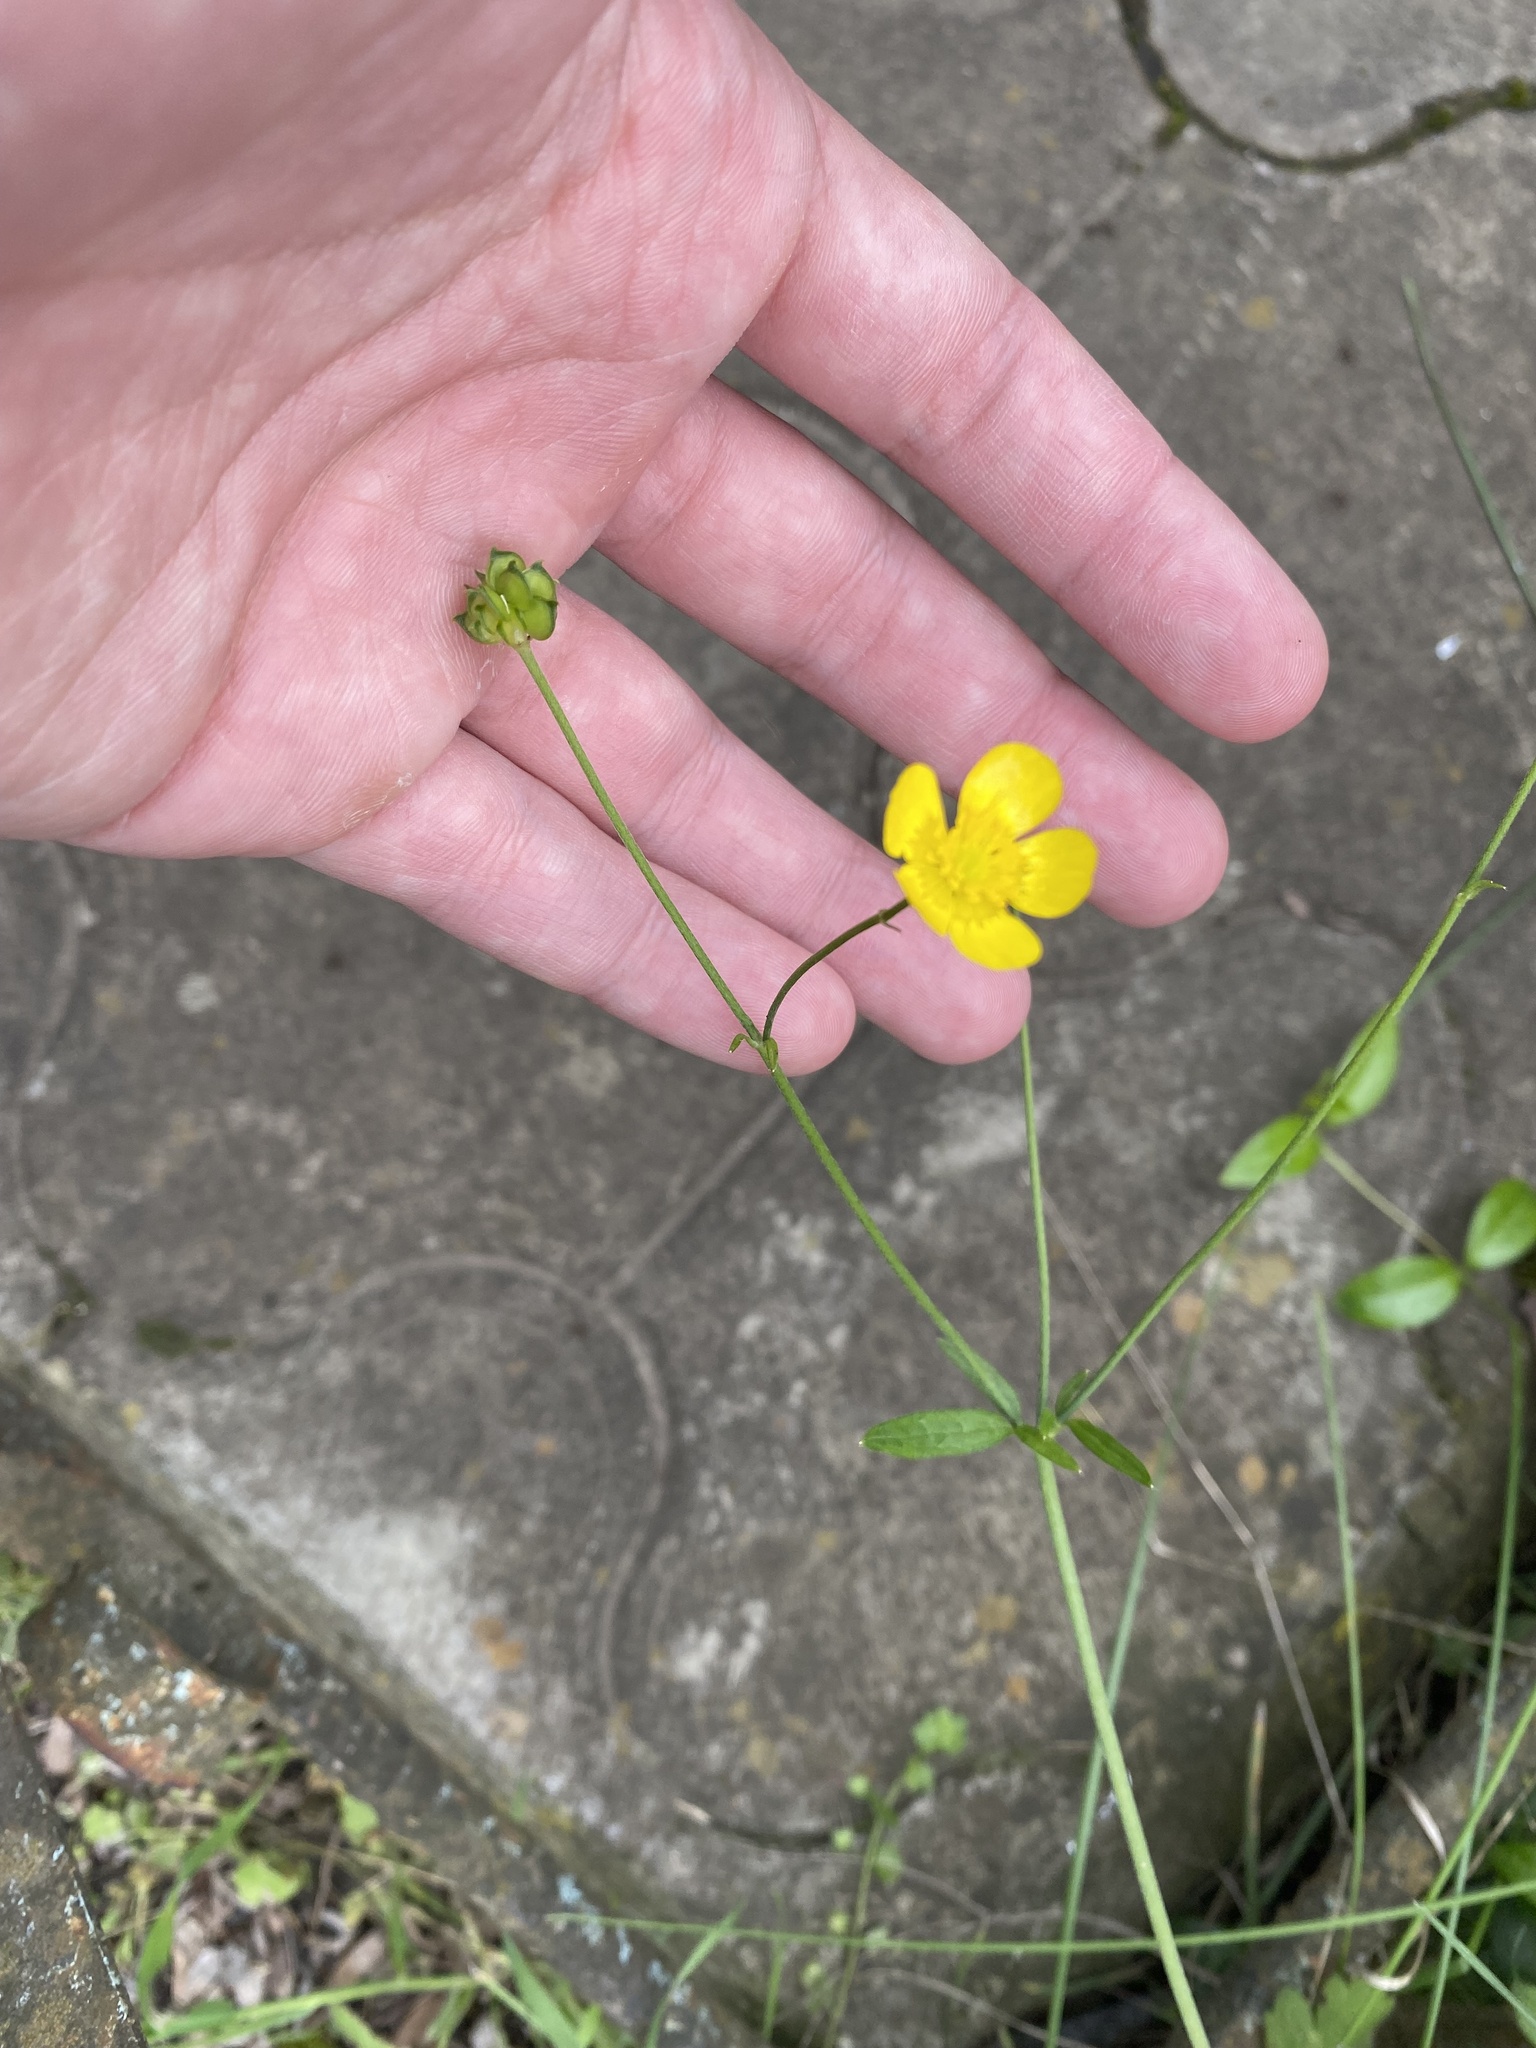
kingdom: Plantae
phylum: Tracheophyta
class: Magnoliopsida
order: Ranunculales
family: Ranunculaceae
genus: Ranunculus
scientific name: Ranunculus constantinopolitanus
